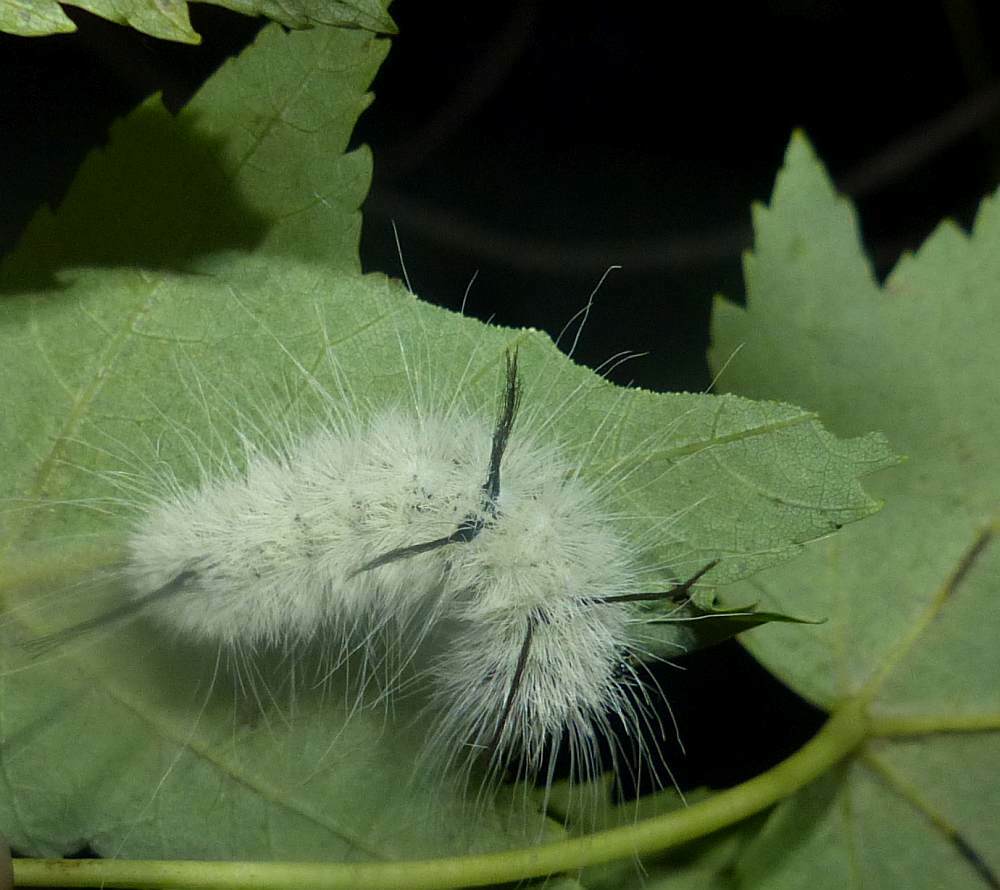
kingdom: Animalia
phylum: Arthropoda
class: Insecta
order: Lepidoptera
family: Noctuidae
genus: Acronicta
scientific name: Acronicta americana
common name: American dagger
